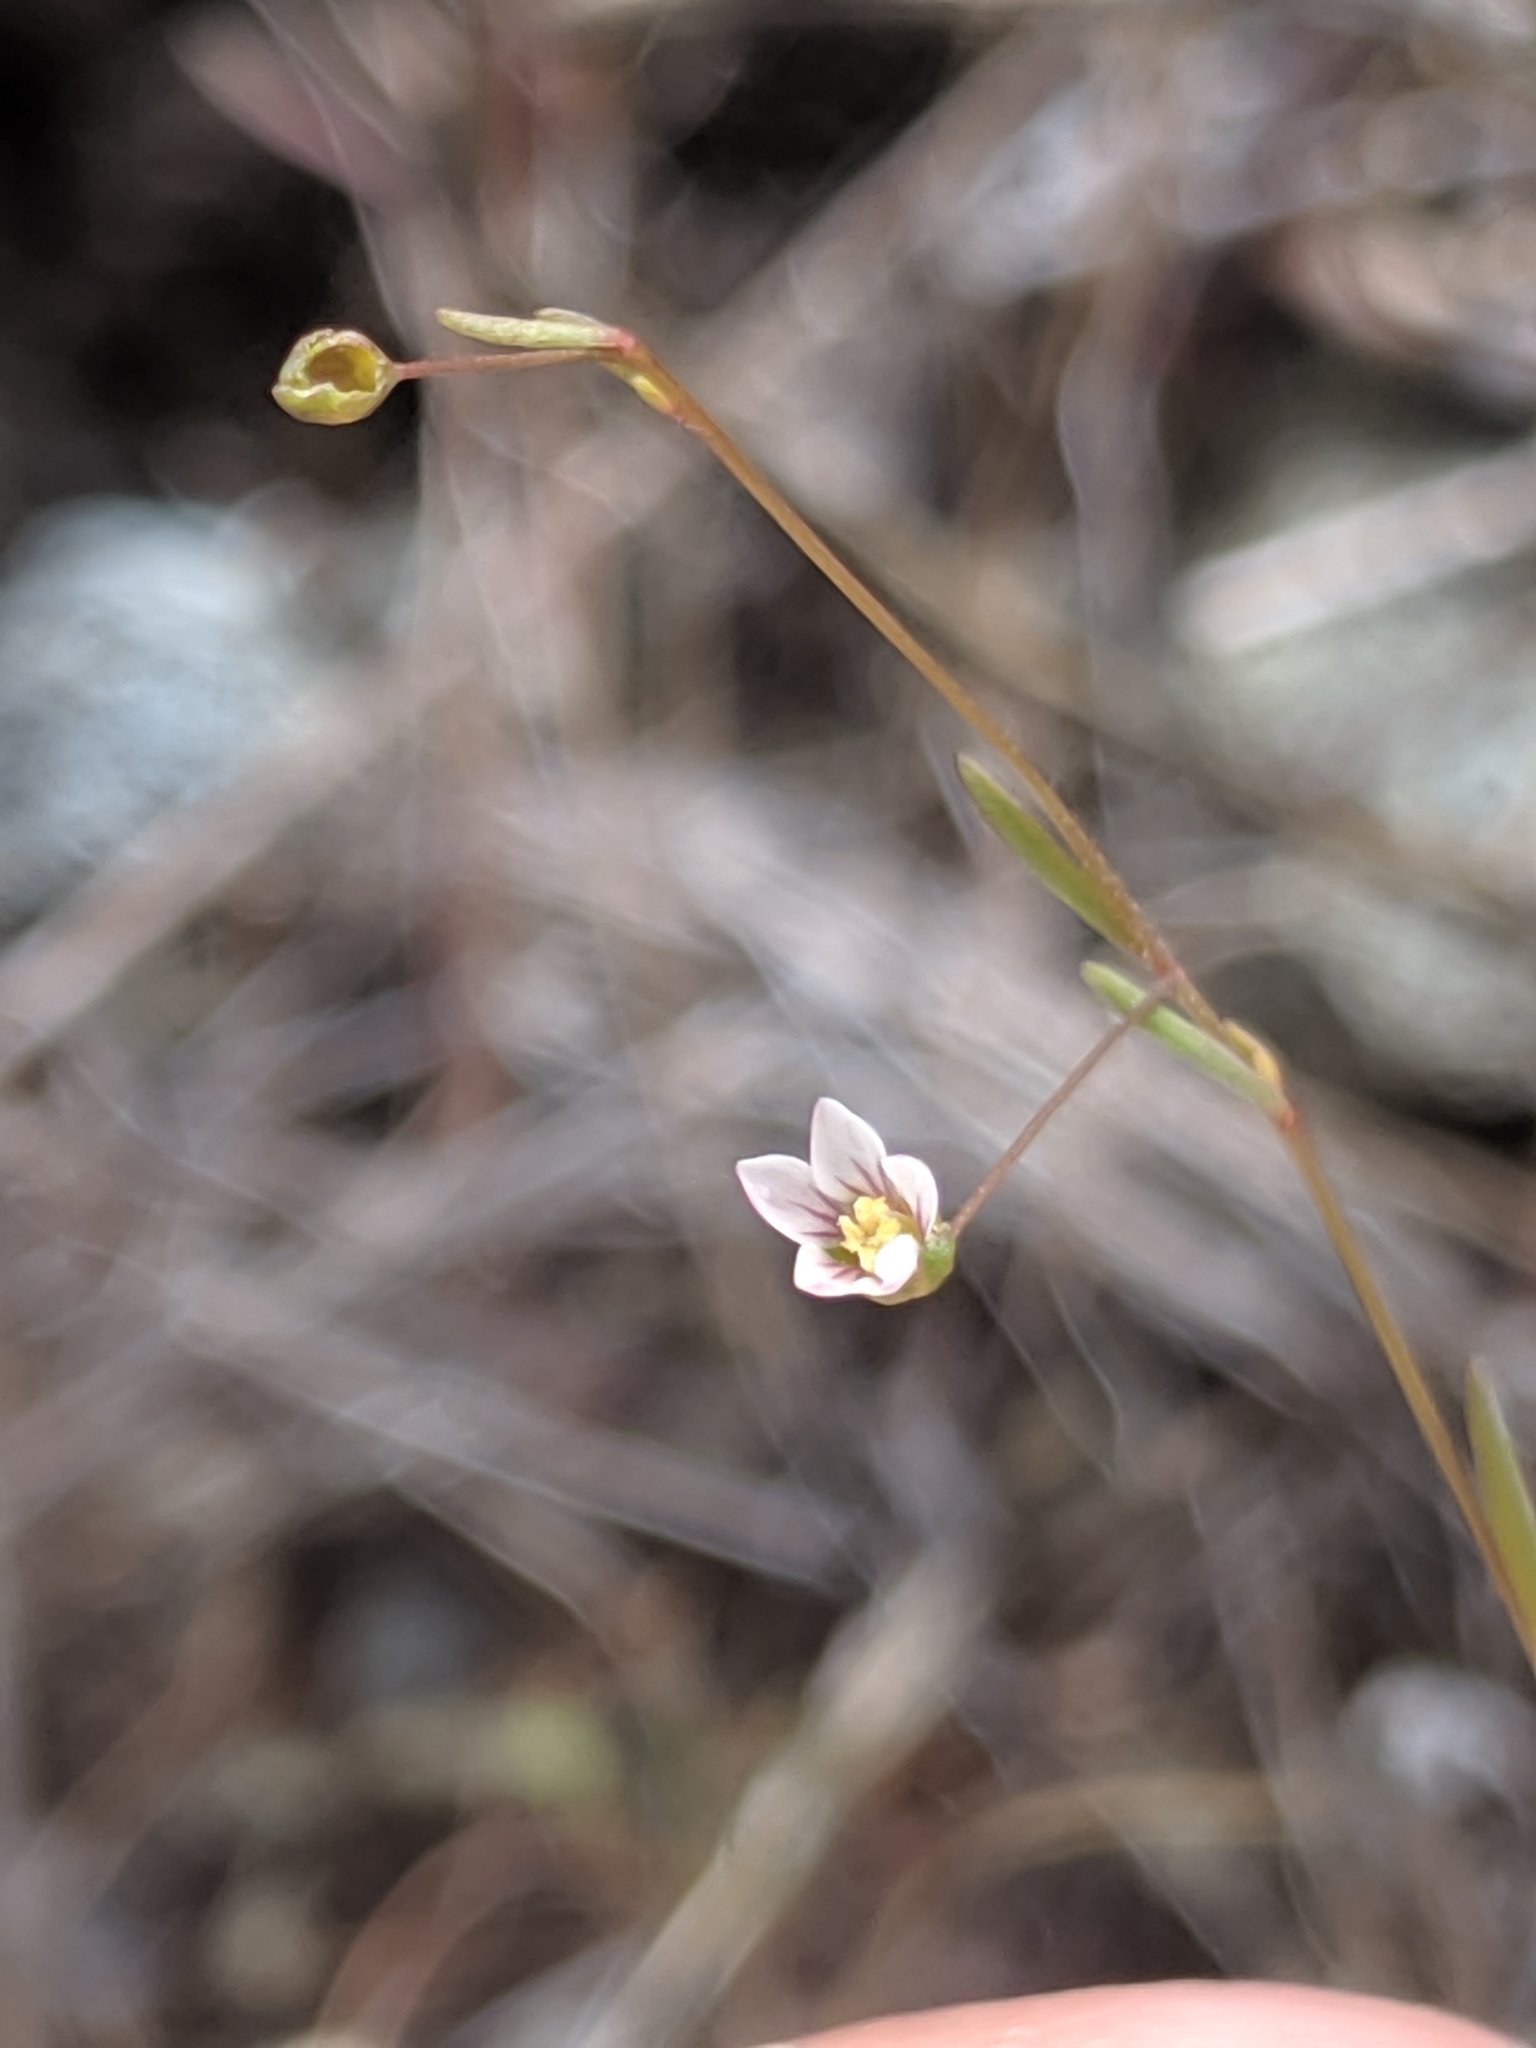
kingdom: Plantae
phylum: Tracheophyta
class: Magnoliopsida
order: Malpighiales
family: Linaceae
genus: Hesperolinon
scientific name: Hesperolinon micranthum
